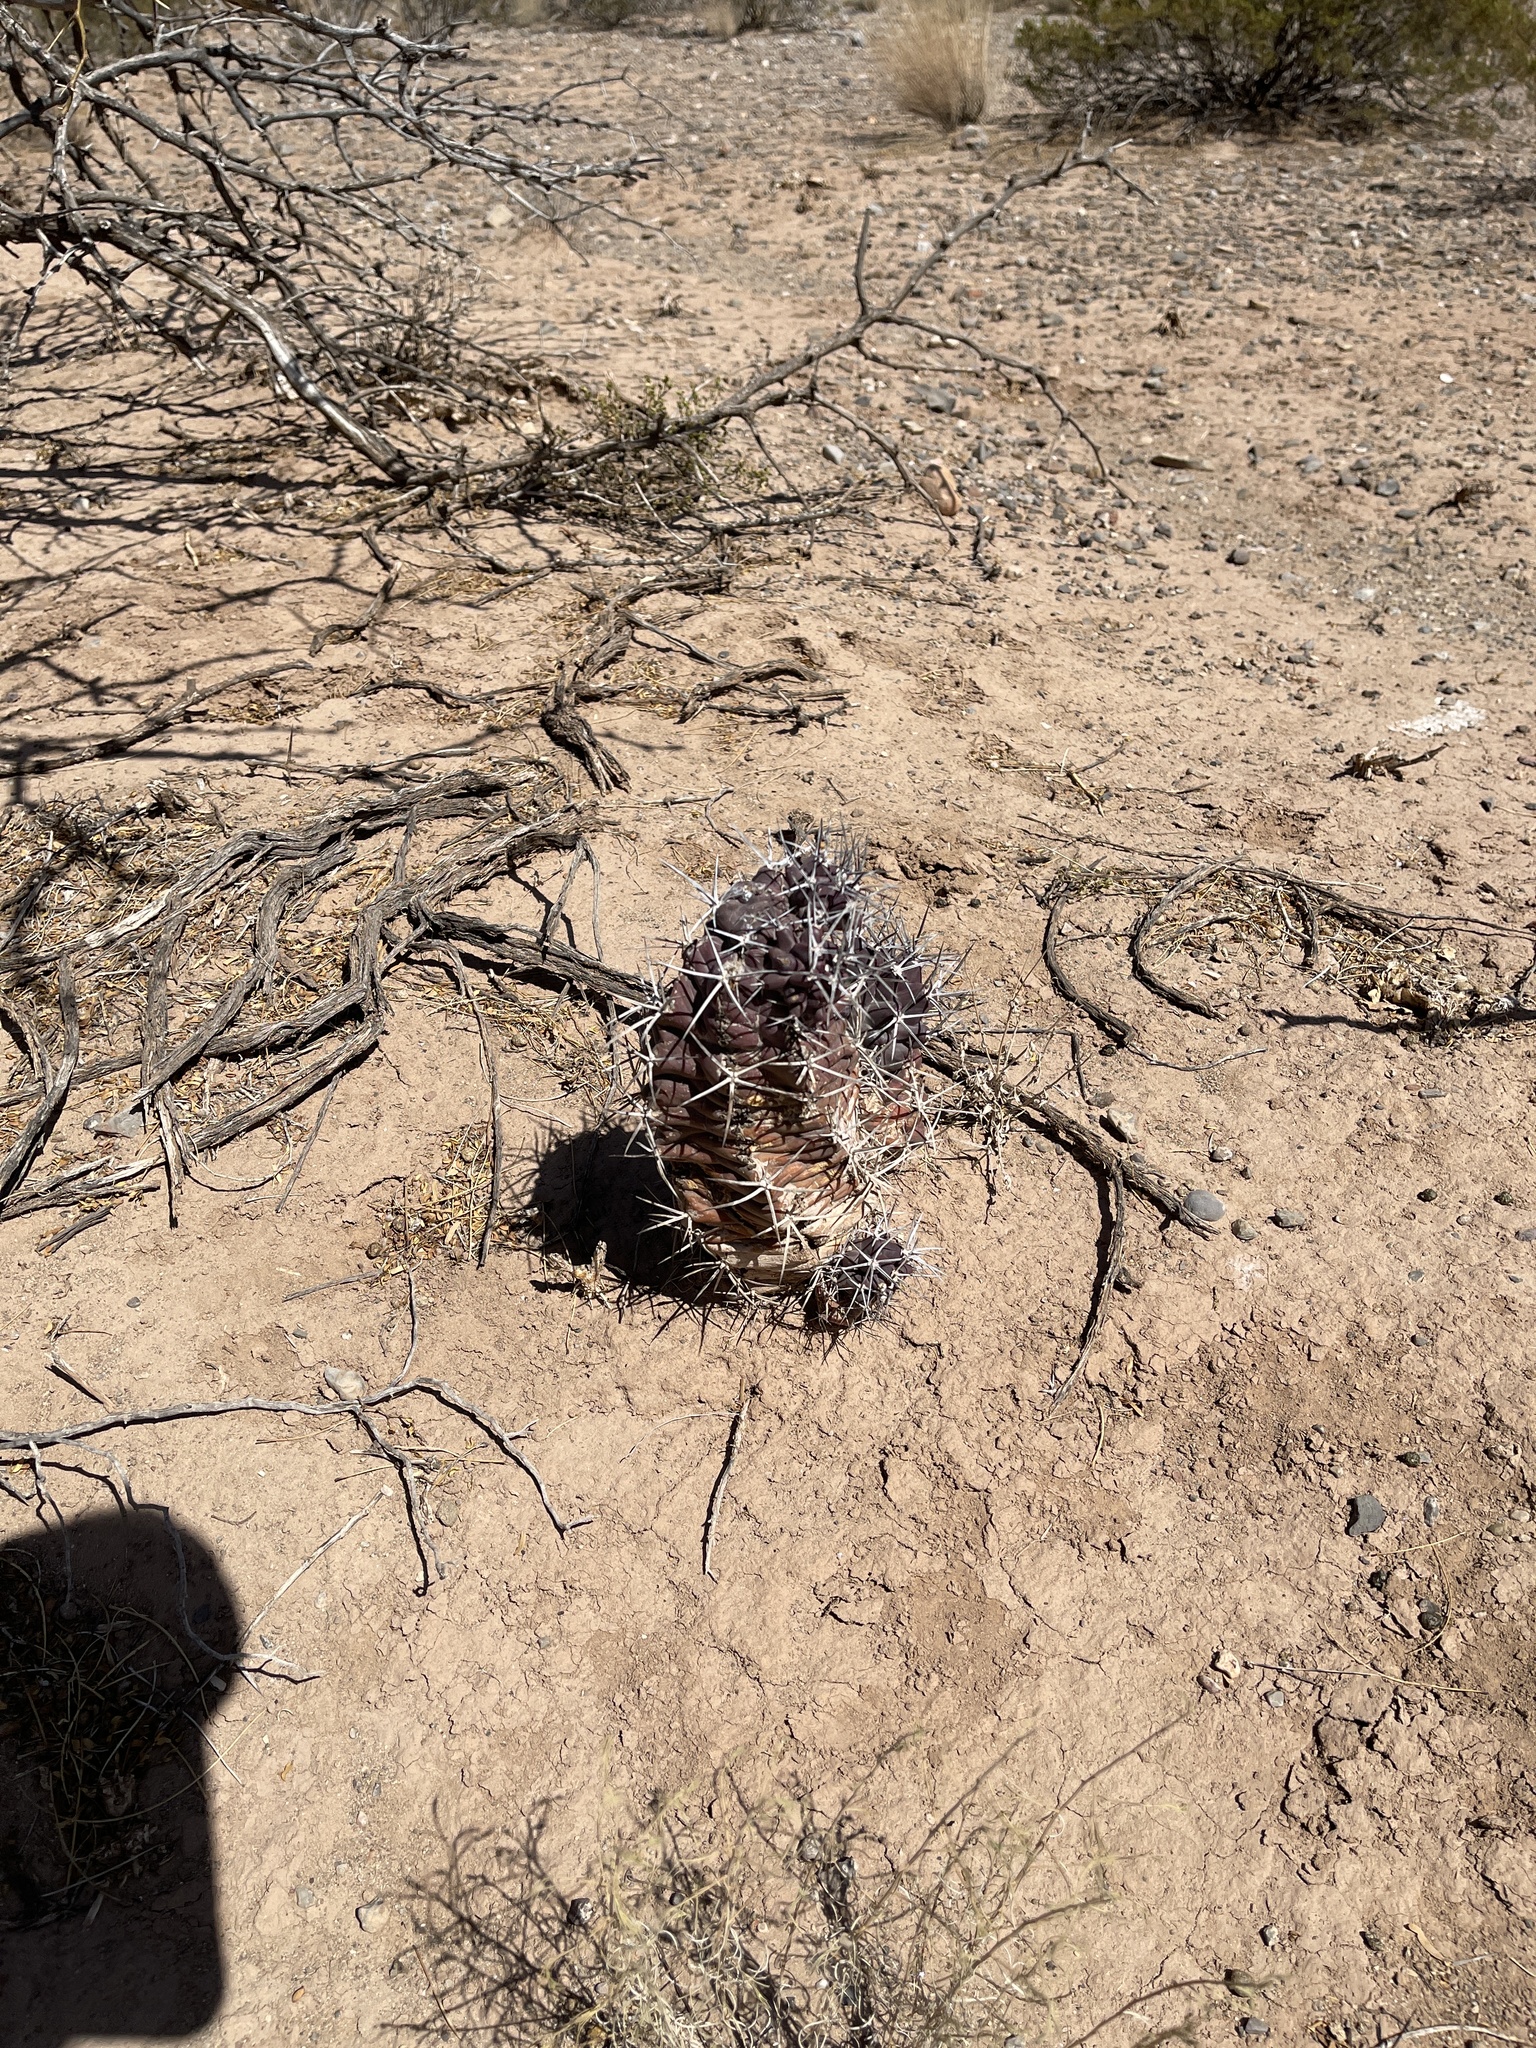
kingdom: Plantae
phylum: Tracheophyta
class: Magnoliopsida
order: Caryophyllales
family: Cactaceae
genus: Echinocereus
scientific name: Echinocereus triglochidiatus
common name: Claretcup hedgehog
